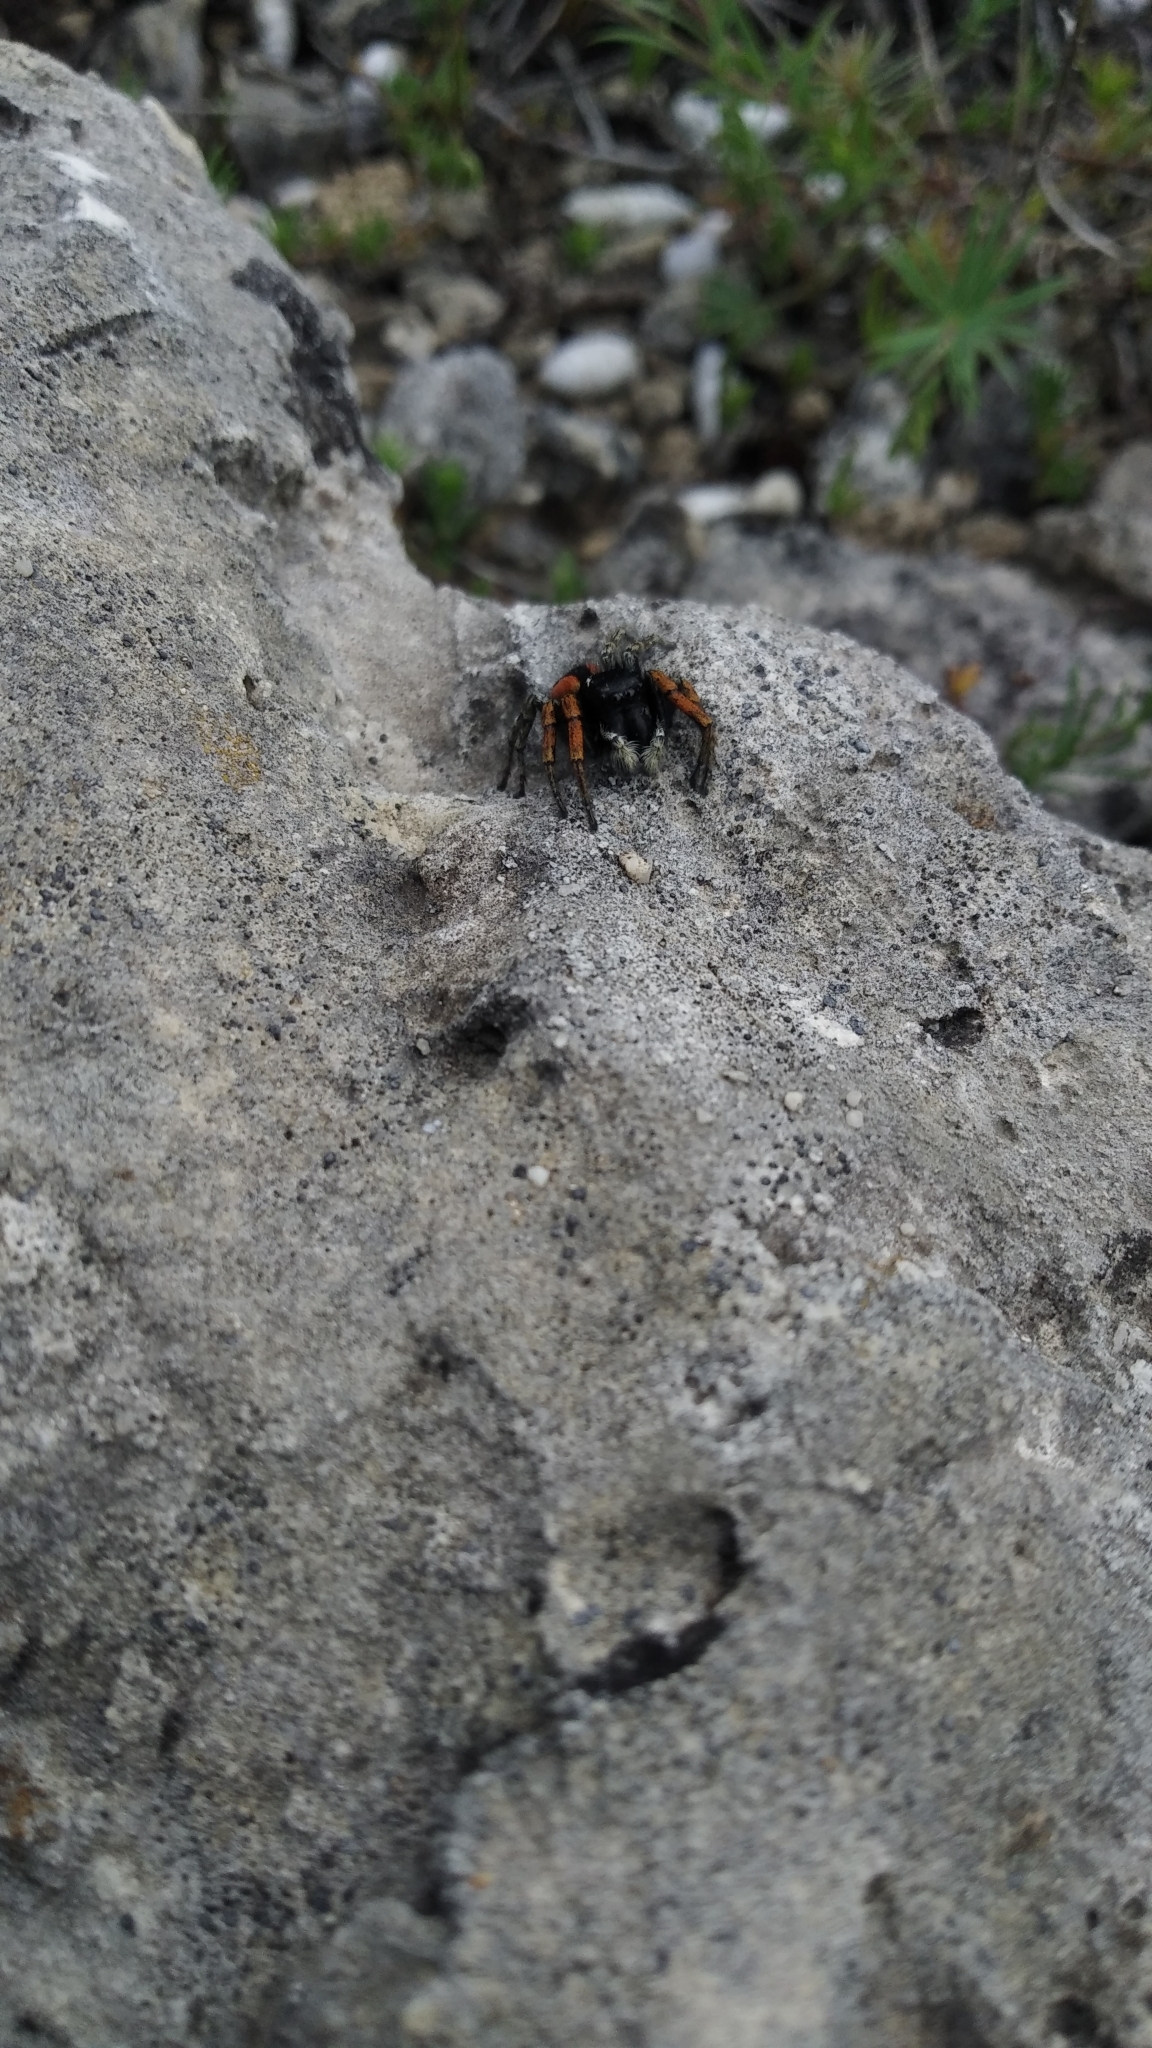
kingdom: Animalia
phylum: Arthropoda
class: Arachnida
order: Araneae
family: Salticidae
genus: Philaeus
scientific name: Philaeus chrysops
